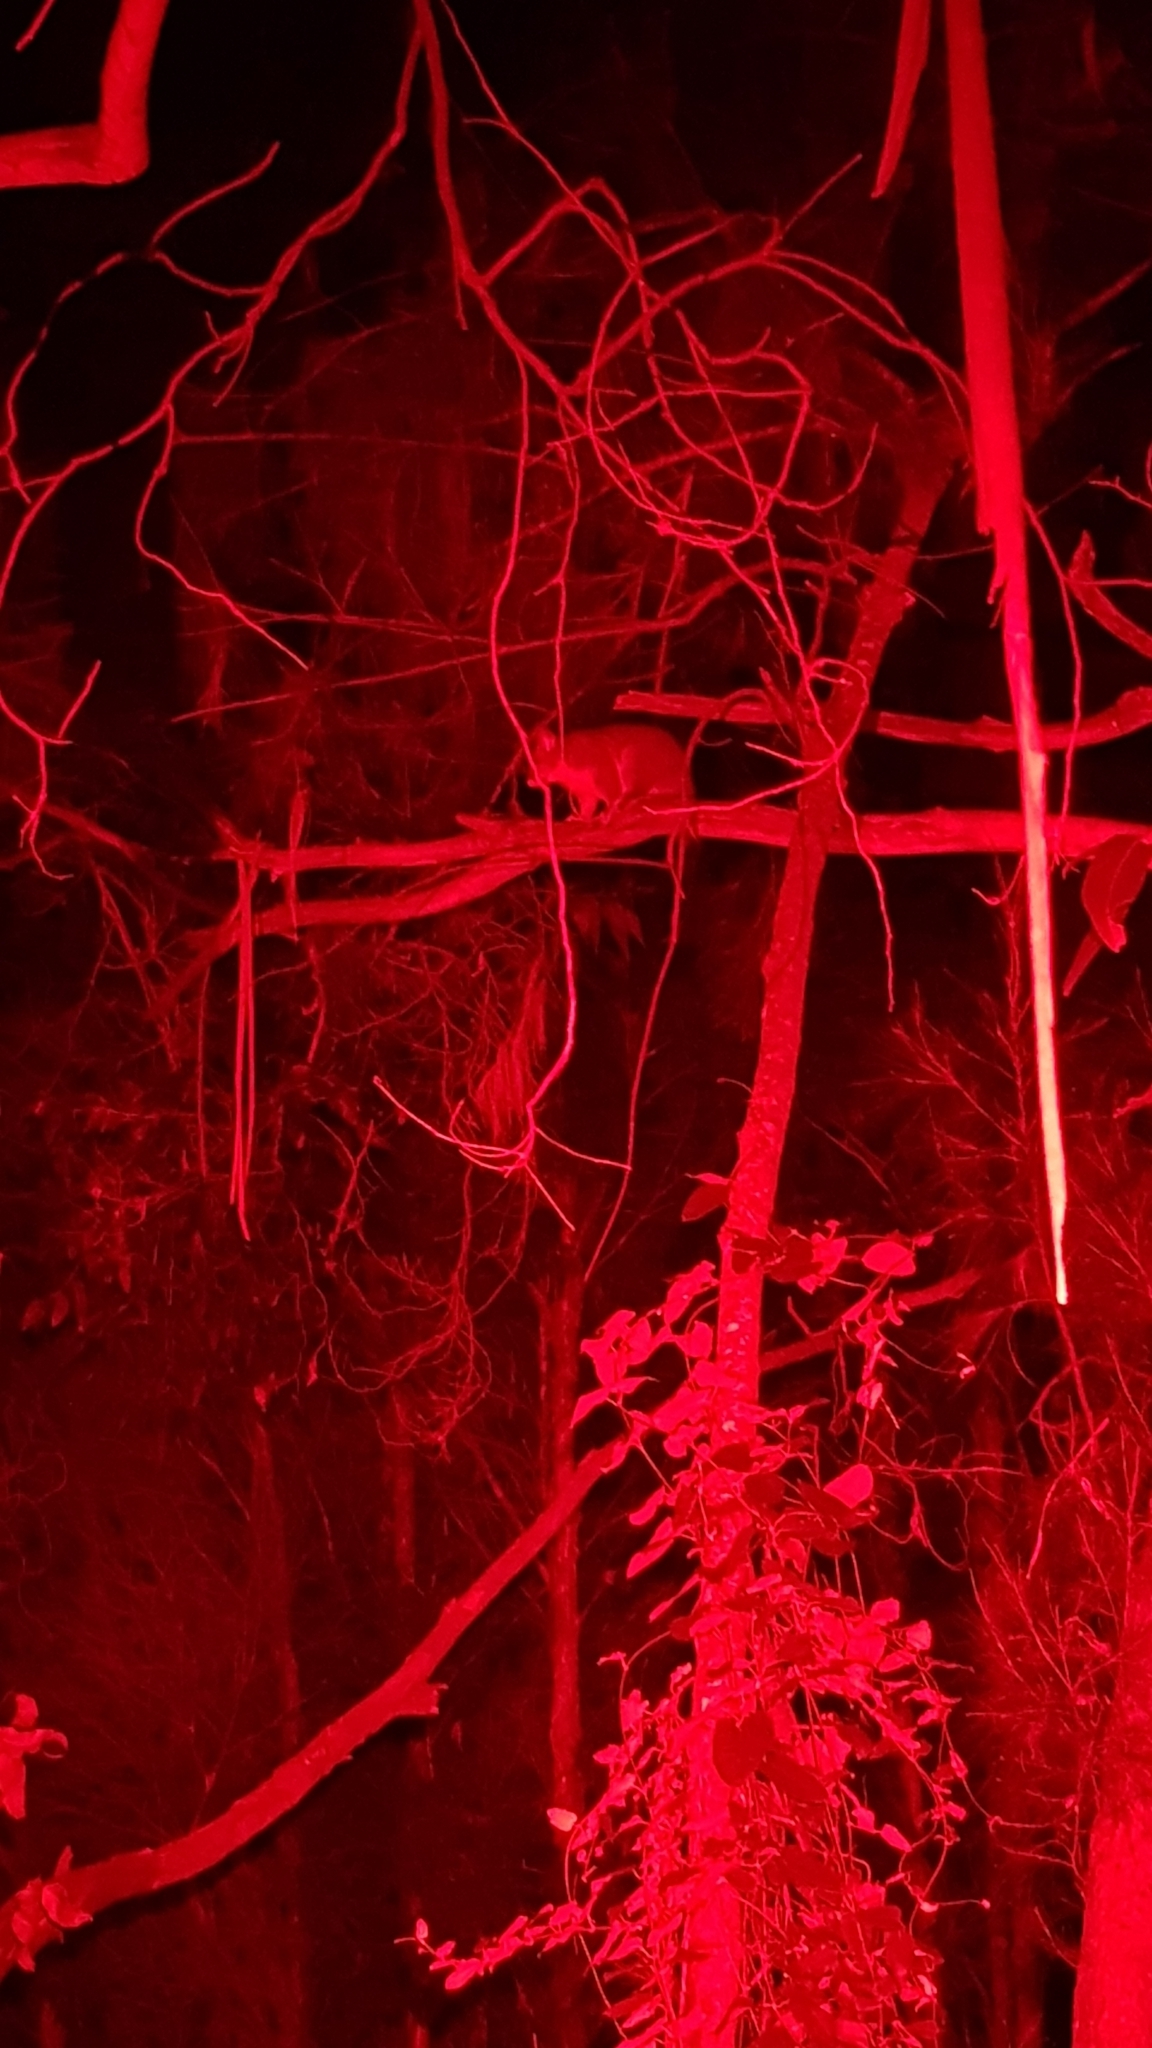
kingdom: Animalia
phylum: Chordata
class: Mammalia
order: Diprotodontia
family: Phalangeridae
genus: Trichosurus
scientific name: Trichosurus vulpecula
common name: Common brushtail
